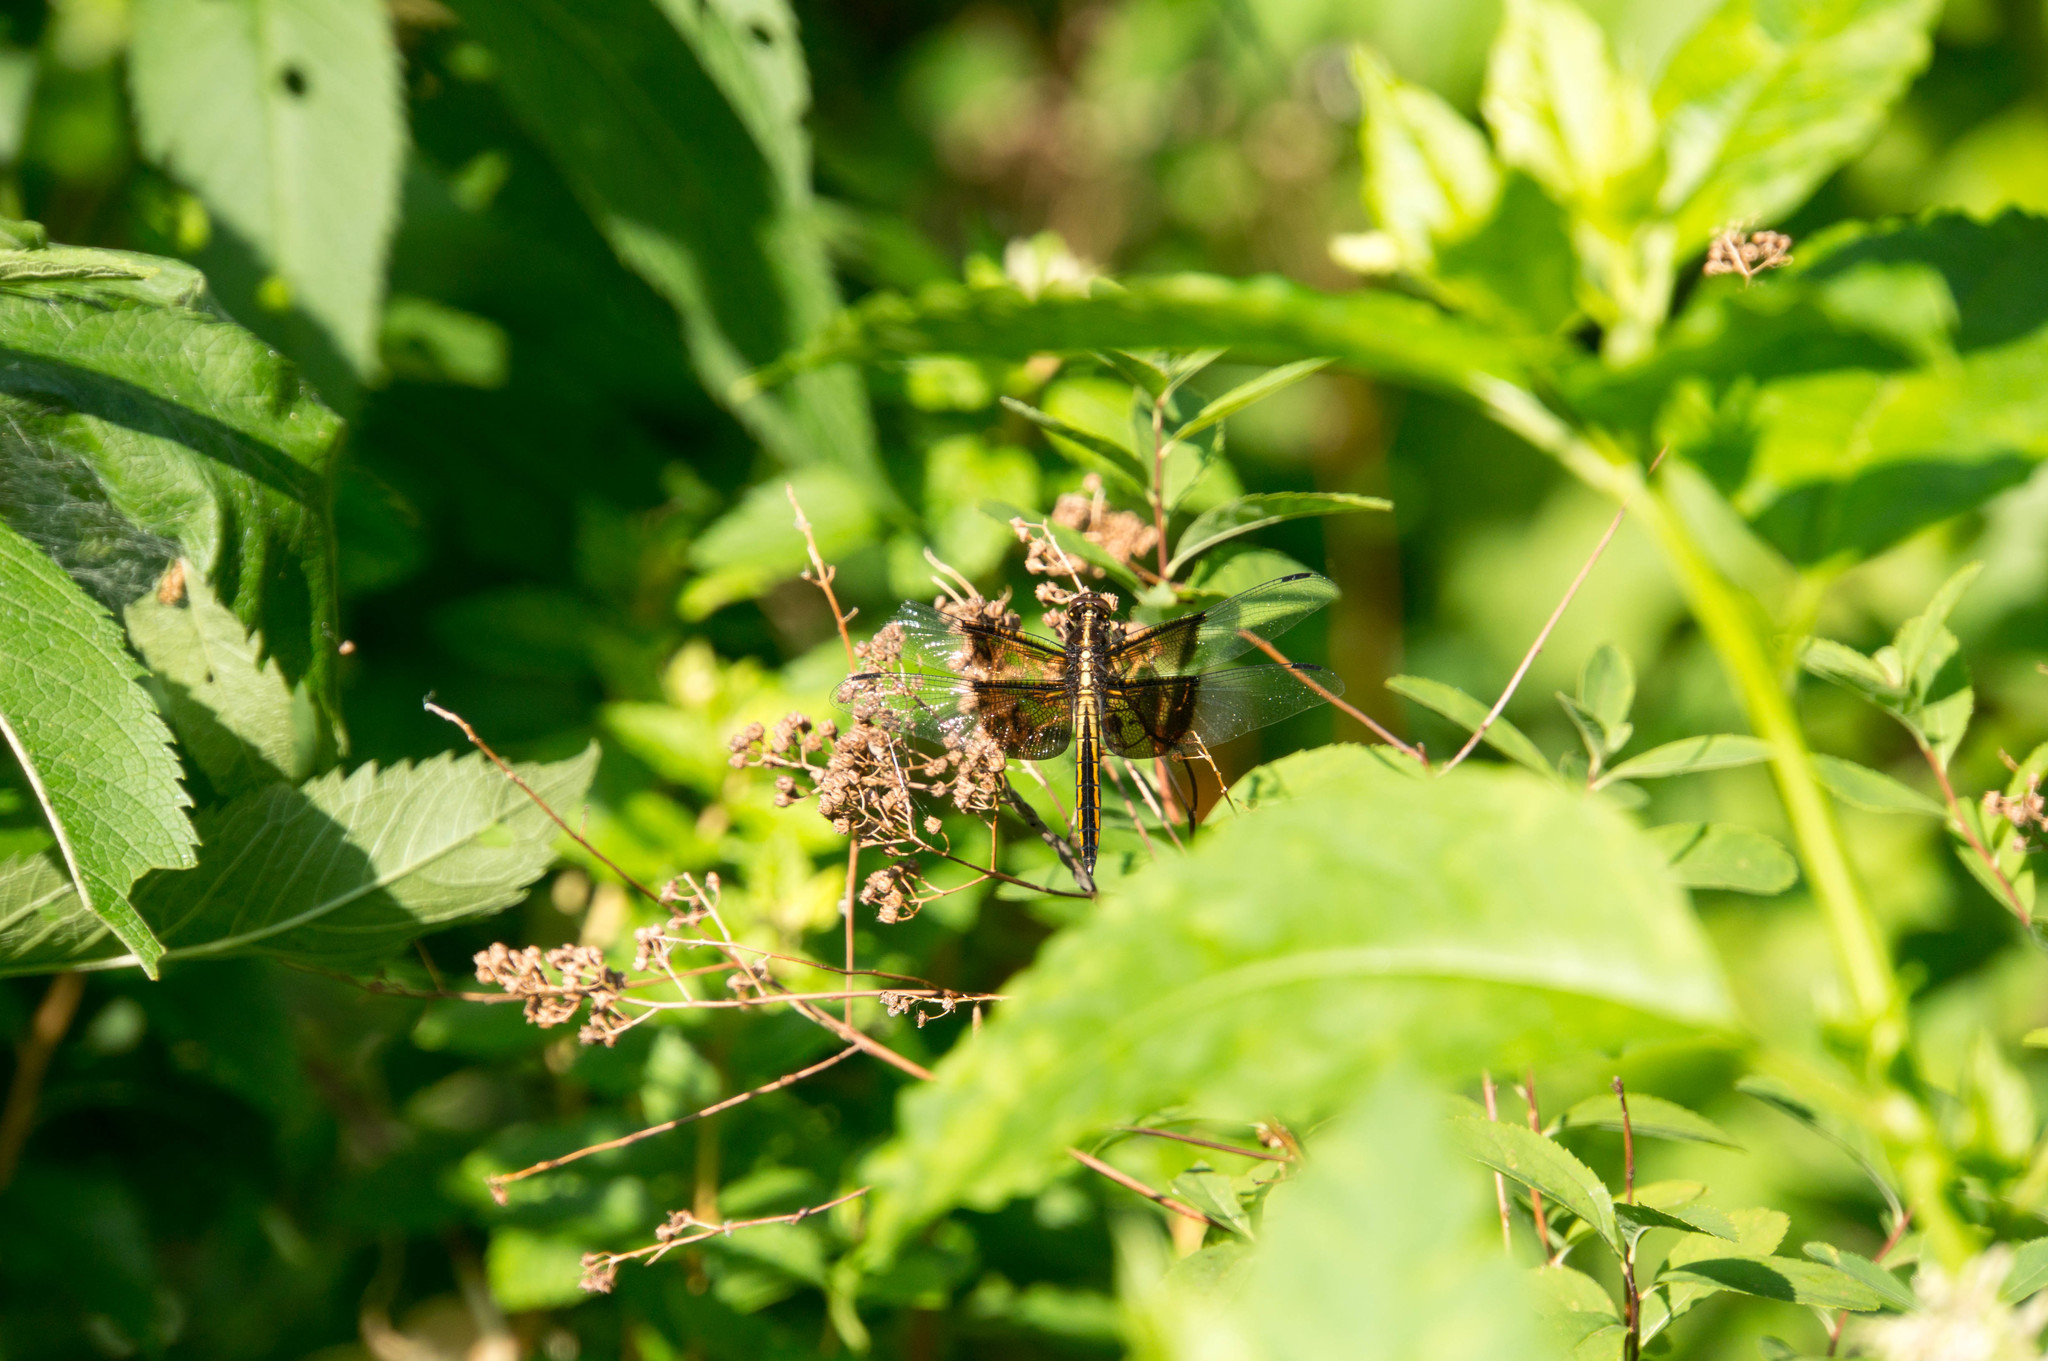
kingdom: Animalia
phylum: Arthropoda
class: Insecta
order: Odonata
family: Libellulidae
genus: Libellula
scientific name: Libellula luctuosa
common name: Widow skimmer
